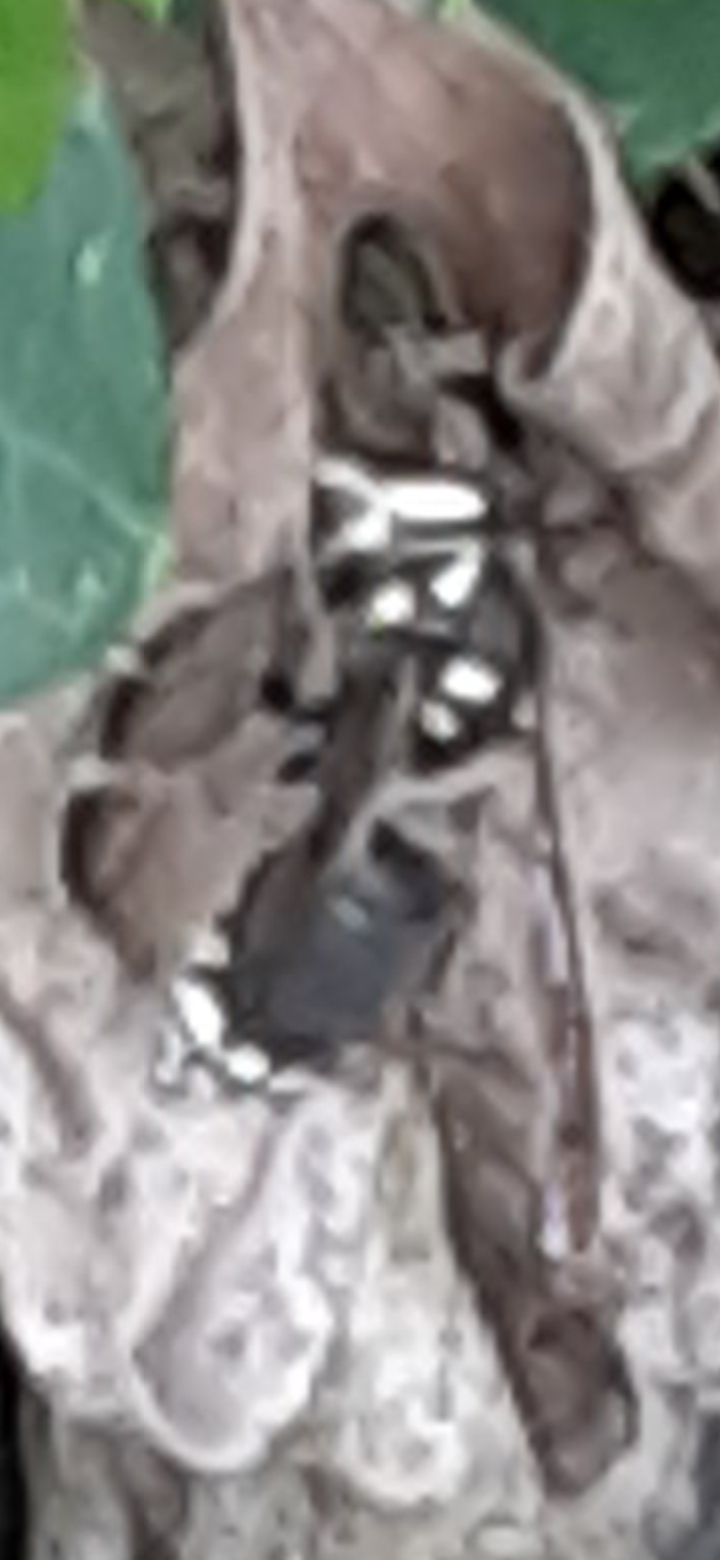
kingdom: Animalia
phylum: Arthropoda
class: Insecta
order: Hymenoptera
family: Vespidae
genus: Dolichovespula
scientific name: Dolichovespula maculata
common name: Bald-faced hornet
